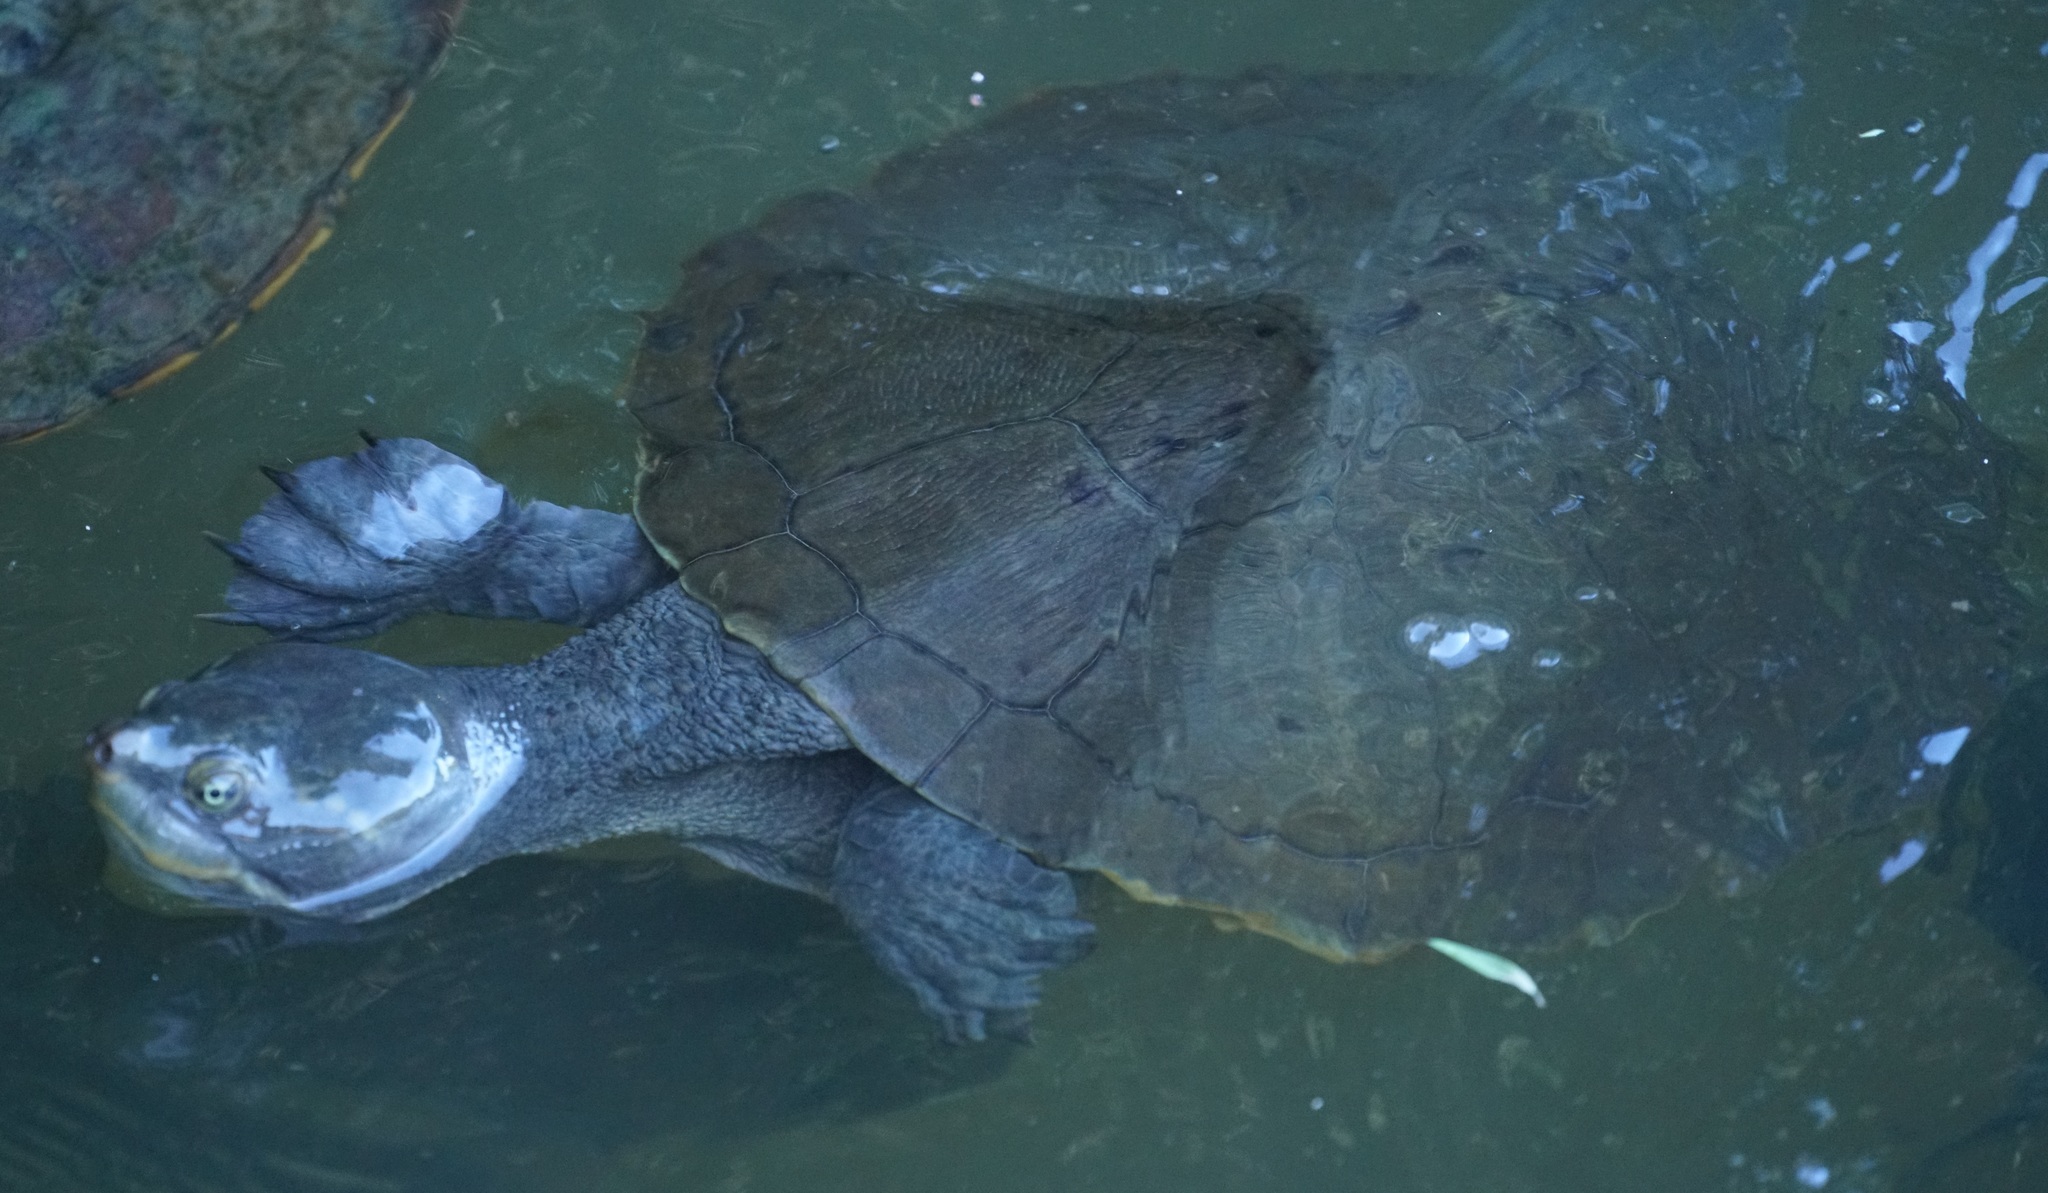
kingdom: Animalia
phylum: Chordata
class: Testudines
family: Chelidae
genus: Emydura
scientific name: Emydura macquarii
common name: Murray river turtle
